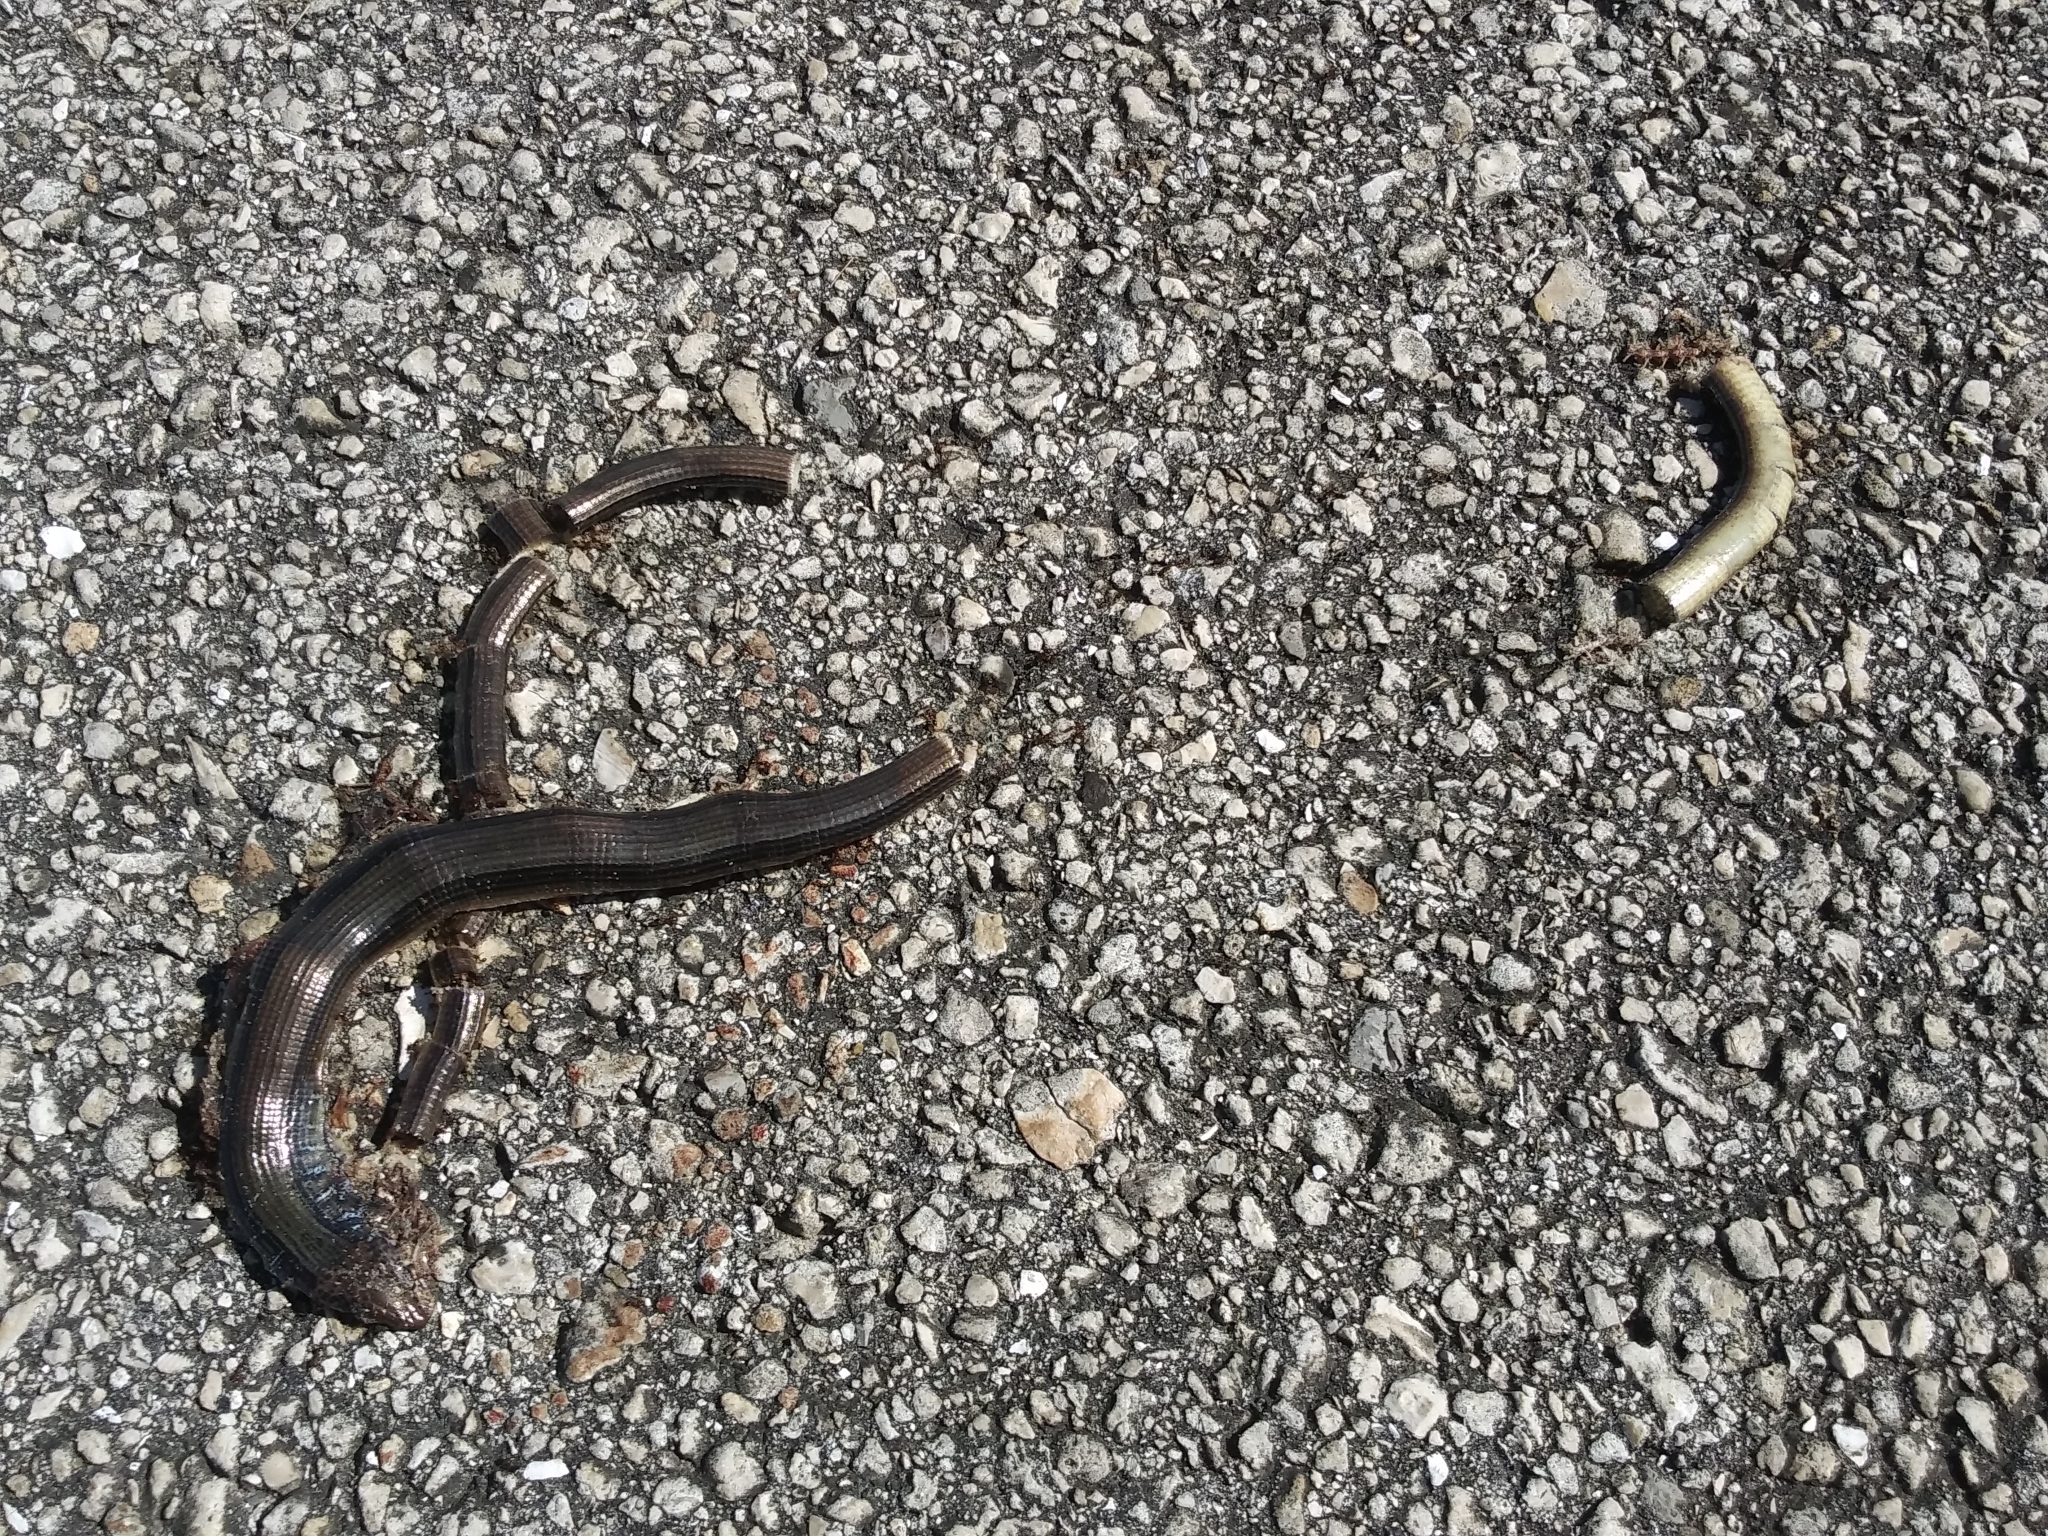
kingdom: Animalia
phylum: Chordata
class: Squamata
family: Anguidae
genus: Ophisaurus
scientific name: Ophisaurus ventralis
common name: Eastern glass lizard
